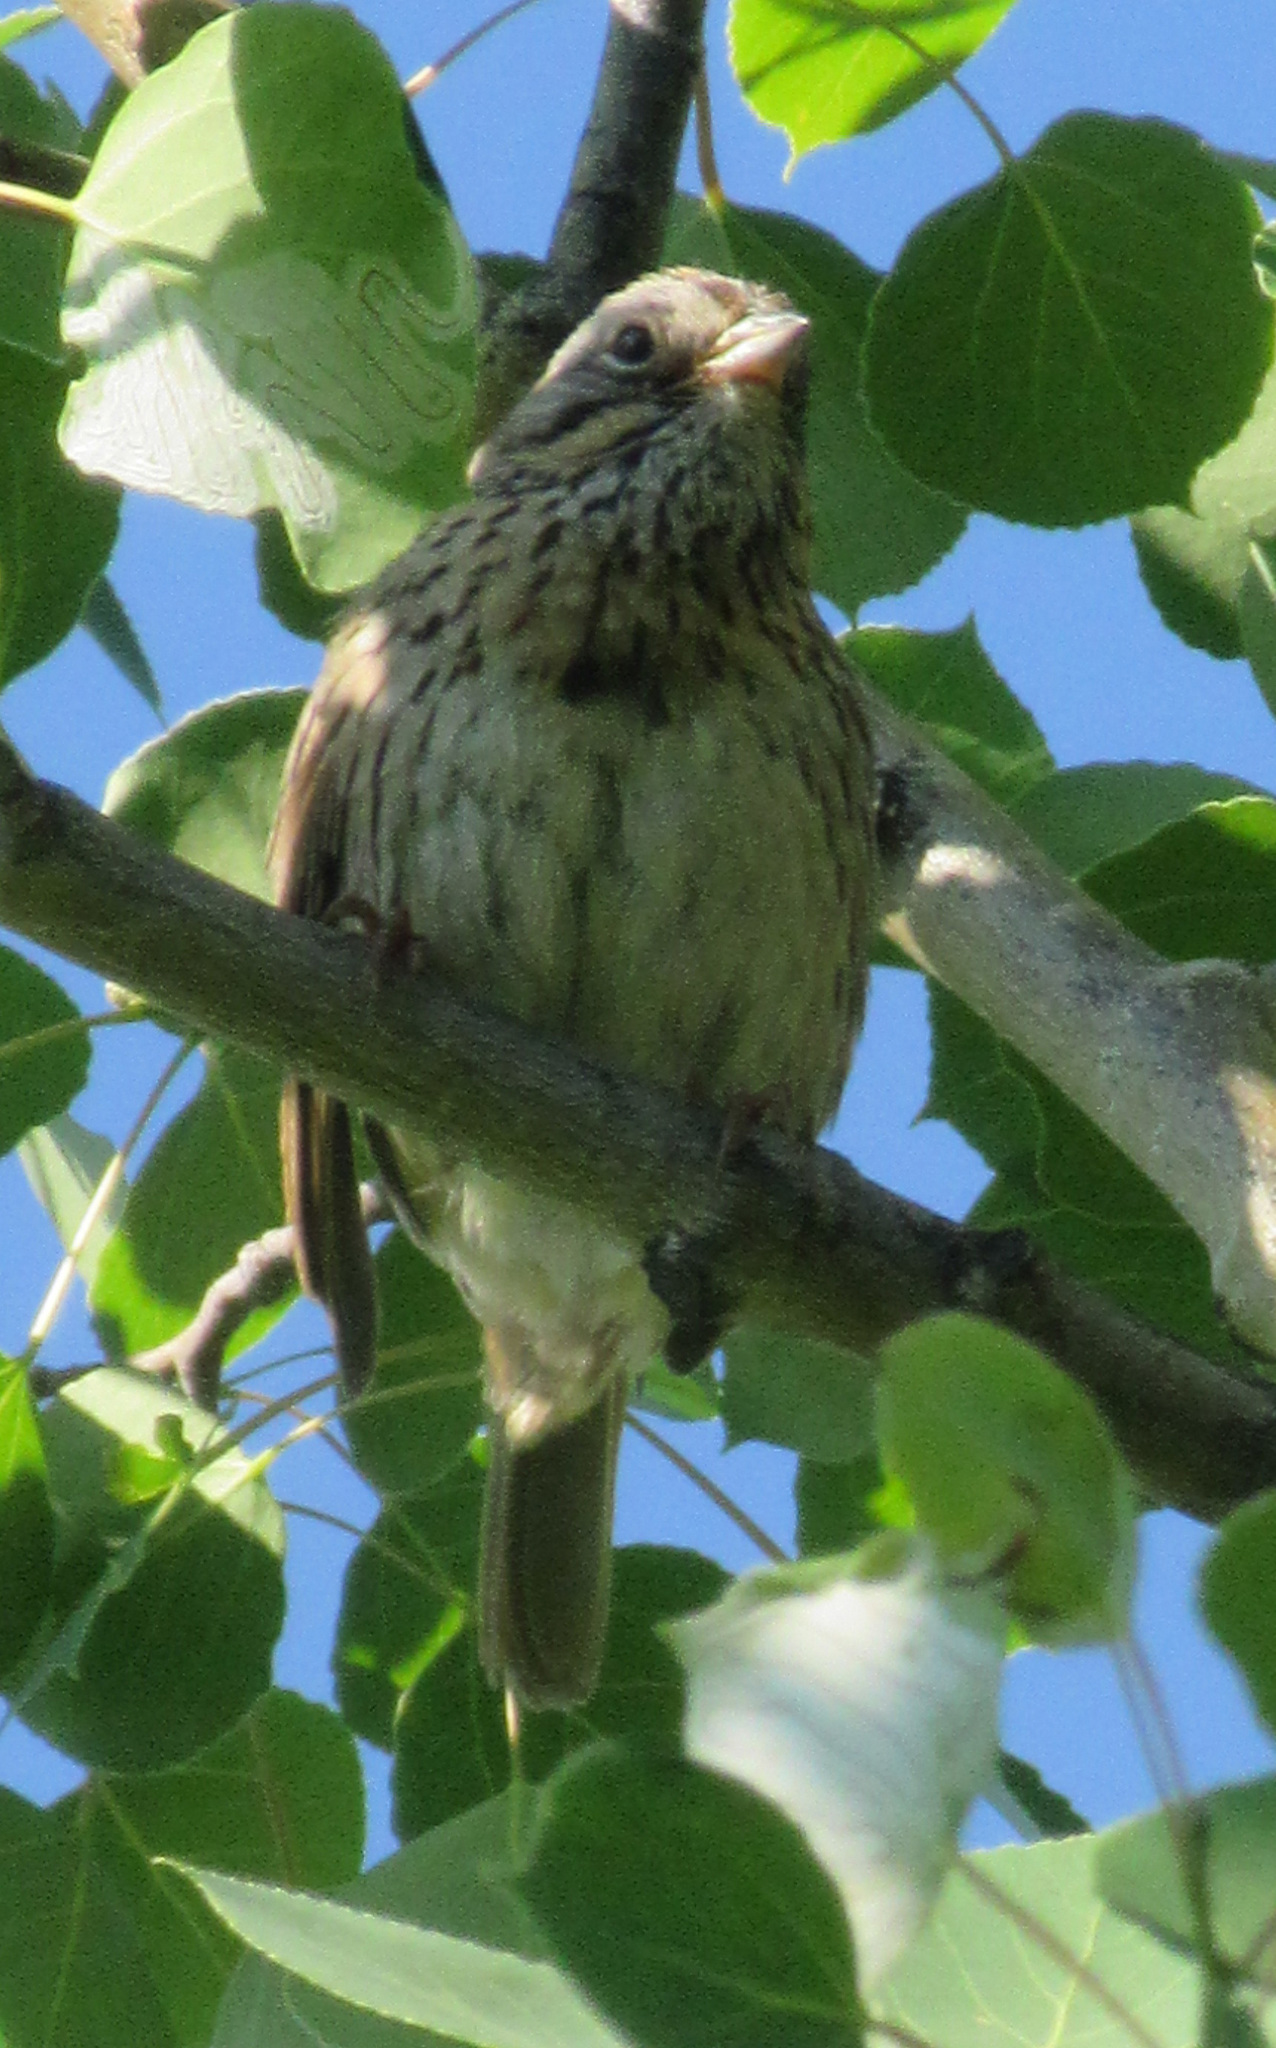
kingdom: Animalia
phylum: Chordata
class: Aves
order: Passeriformes
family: Passerellidae
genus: Melospiza
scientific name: Melospiza lincolnii
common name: Lincoln's sparrow
